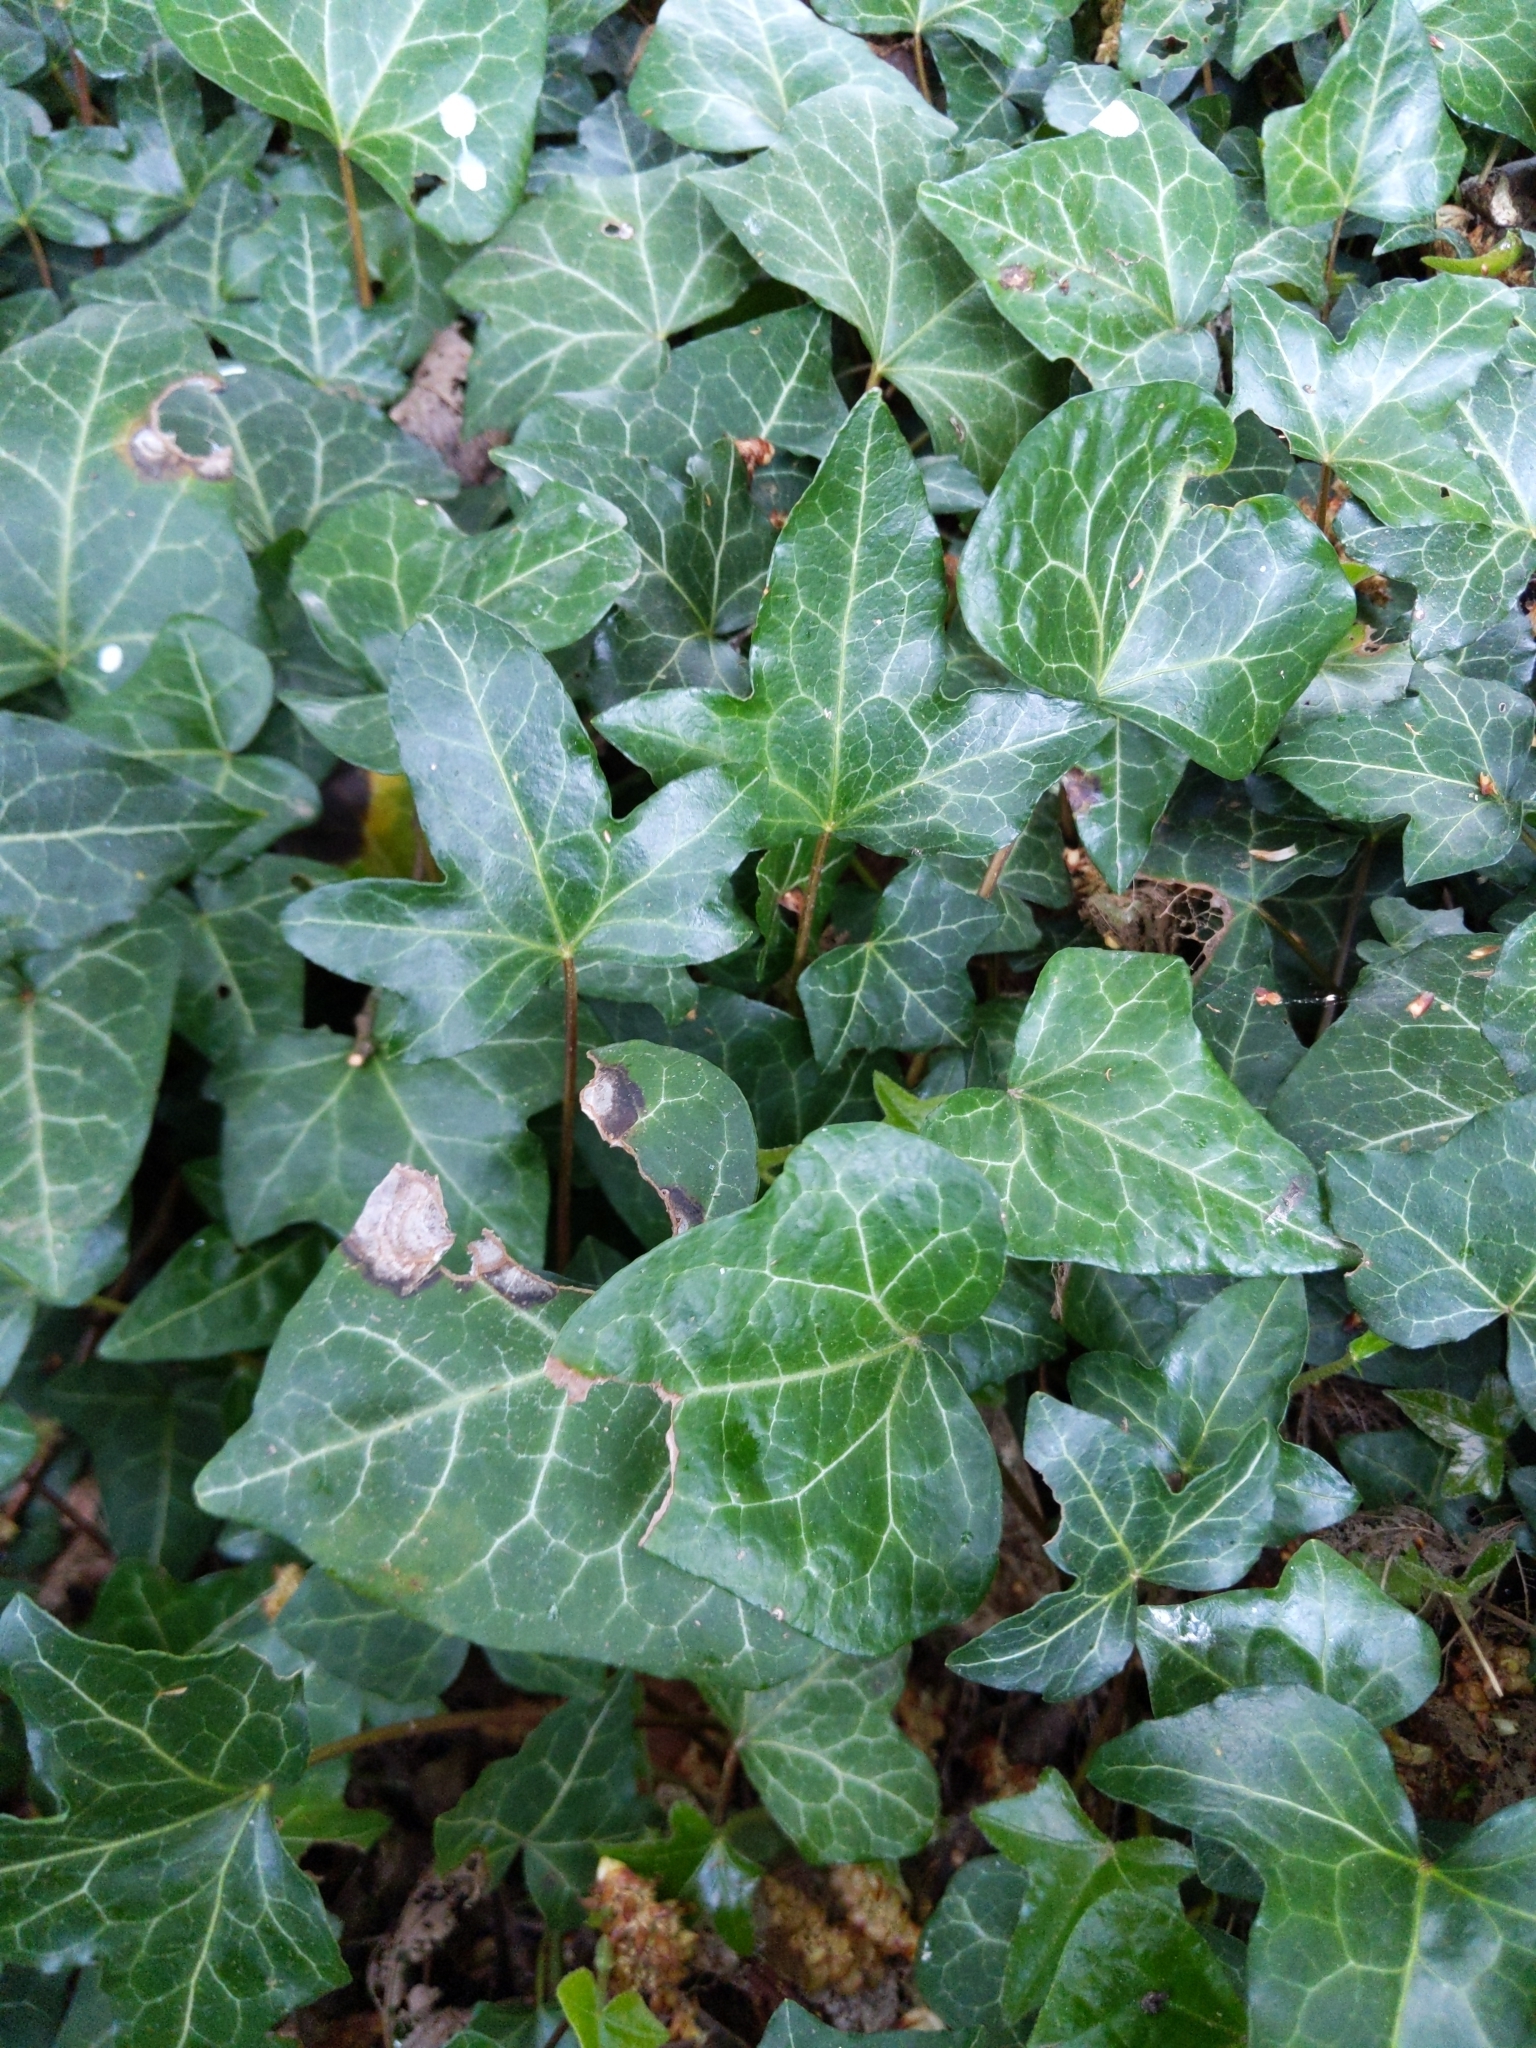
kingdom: Plantae
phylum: Tracheophyta
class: Magnoliopsida
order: Apiales
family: Araliaceae
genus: Hedera
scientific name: Hedera helix
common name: Ivy
